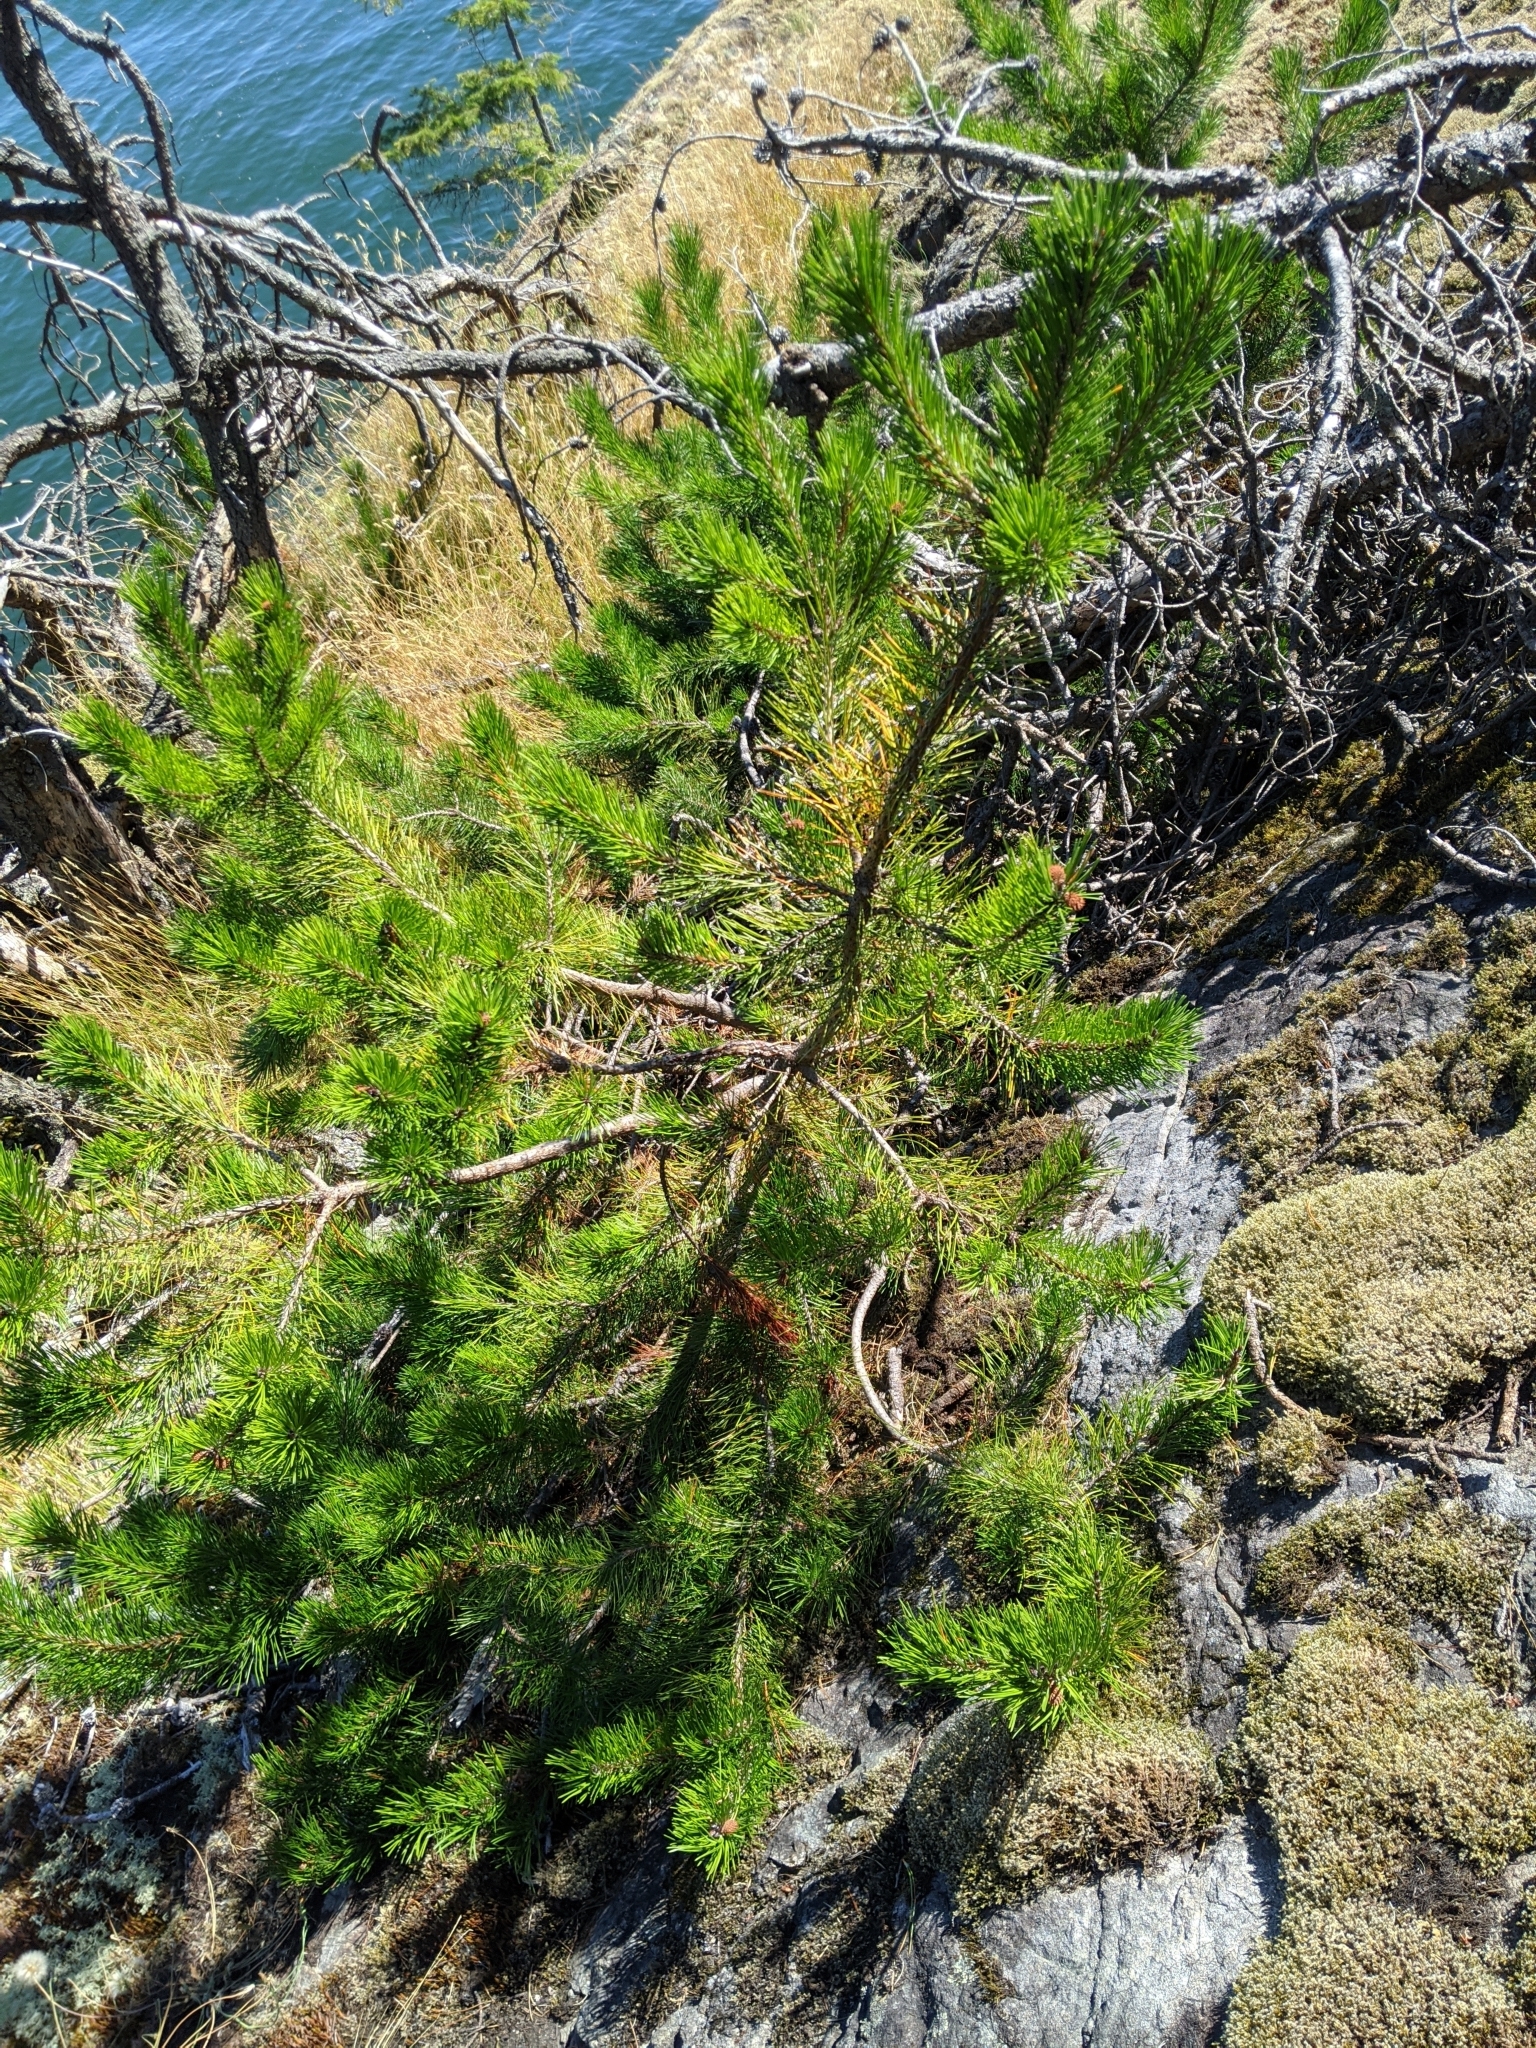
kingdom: Plantae
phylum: Tracheophyta
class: Pinopsida
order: Pinales
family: Pinaceae
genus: Pinus
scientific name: Pinus contorta
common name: Lodgepole pine
